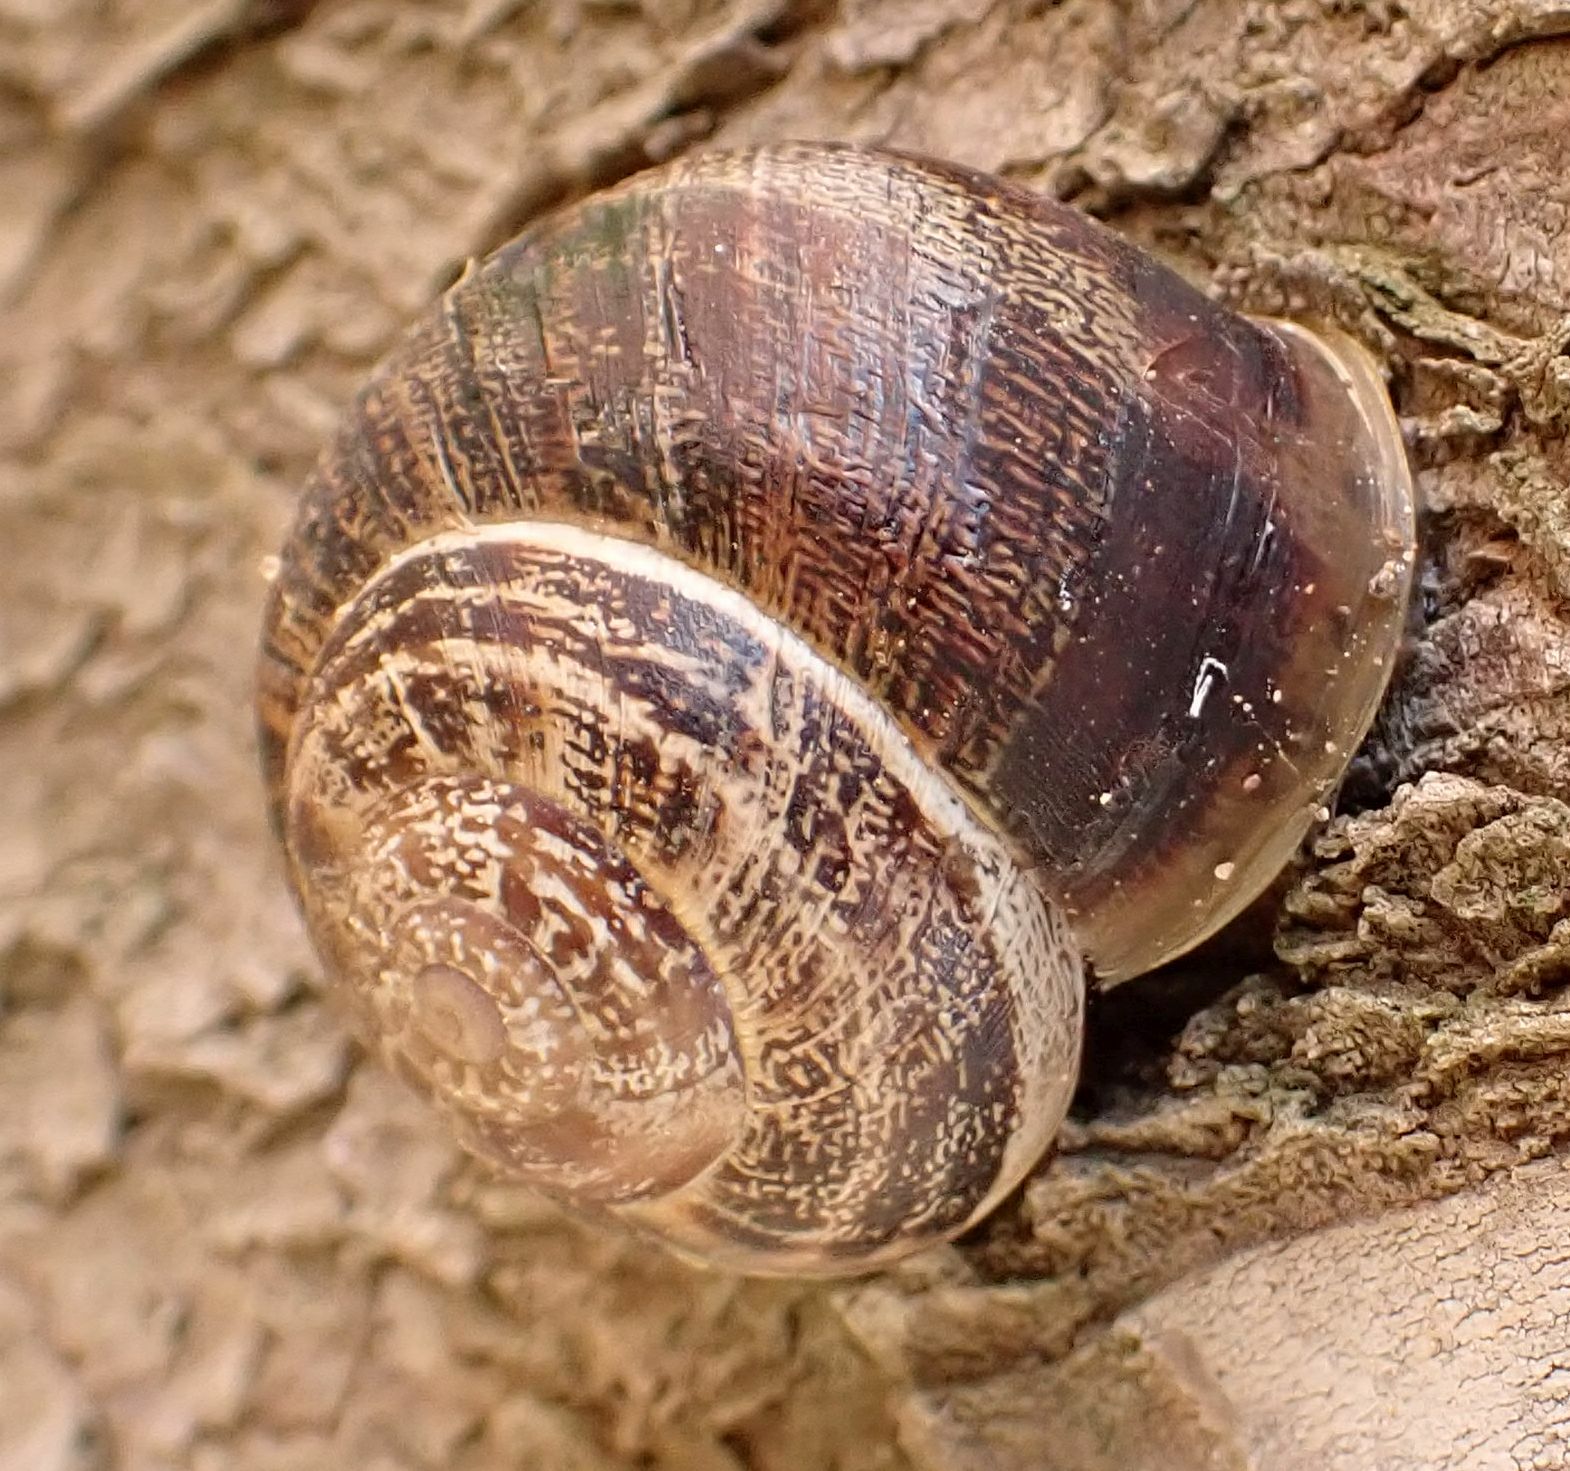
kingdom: Animalia
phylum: Mollusca
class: Gastropoda
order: Stylommatophora
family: Helicidae
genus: Eobania
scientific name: Eobania vermiculata
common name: Chocolateband snail
